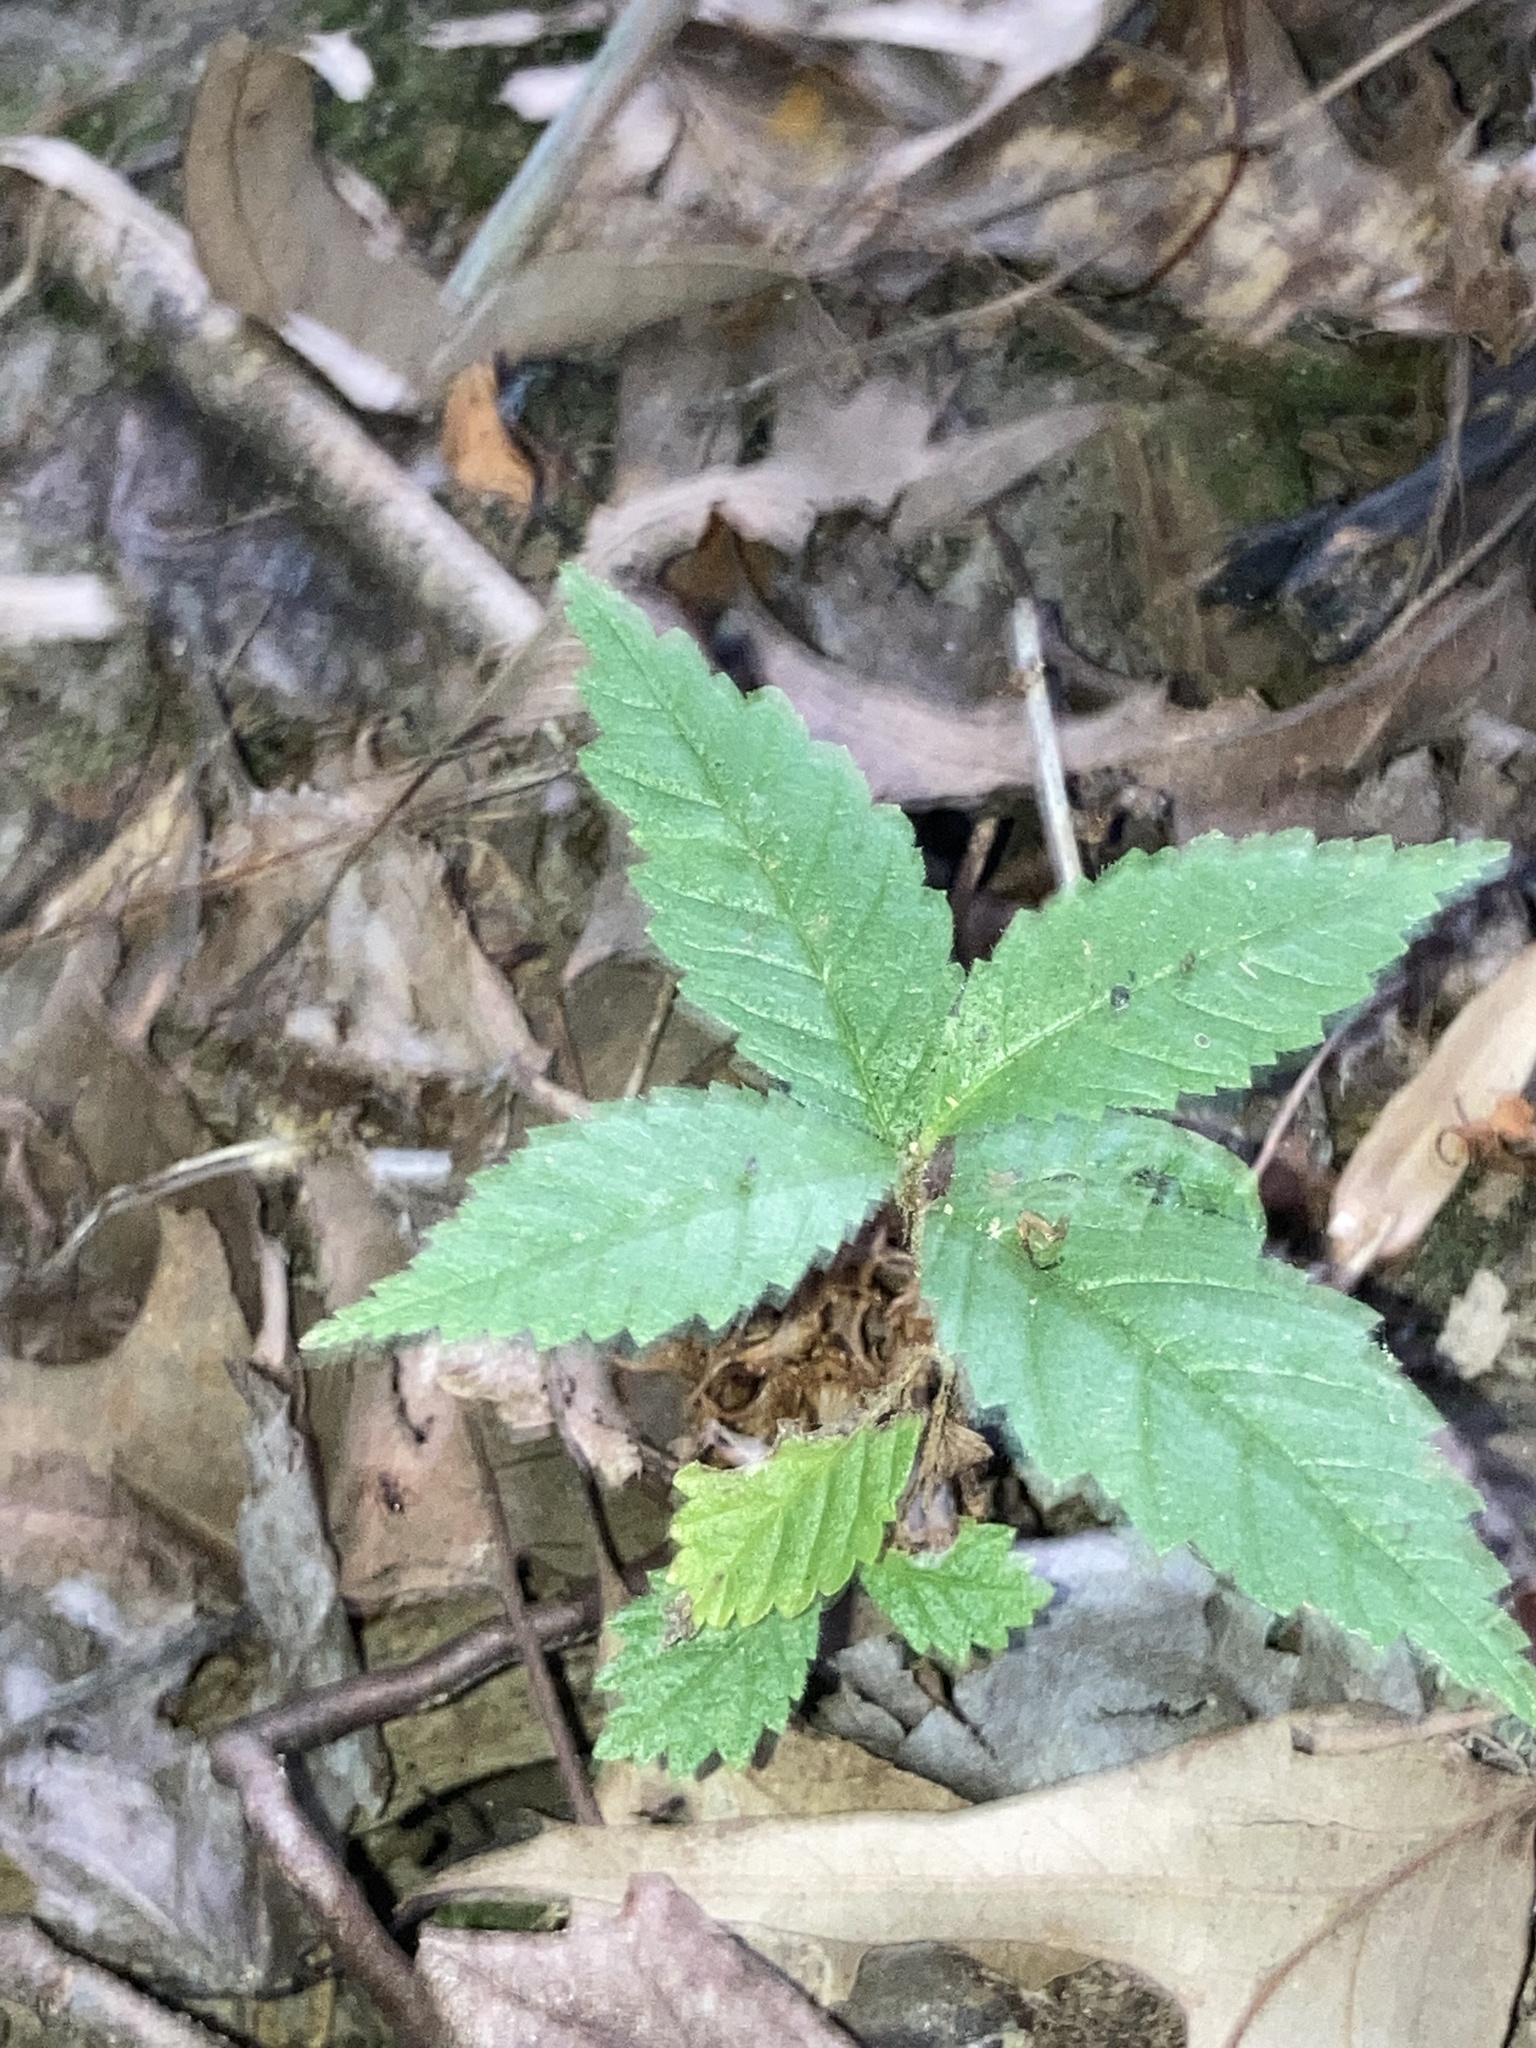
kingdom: Plantae
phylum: Tracheophyta
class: Magnoliopsida
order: Rosales
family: Ulmaceae
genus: Ulmus
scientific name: Ulmus alata
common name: Winged elm
